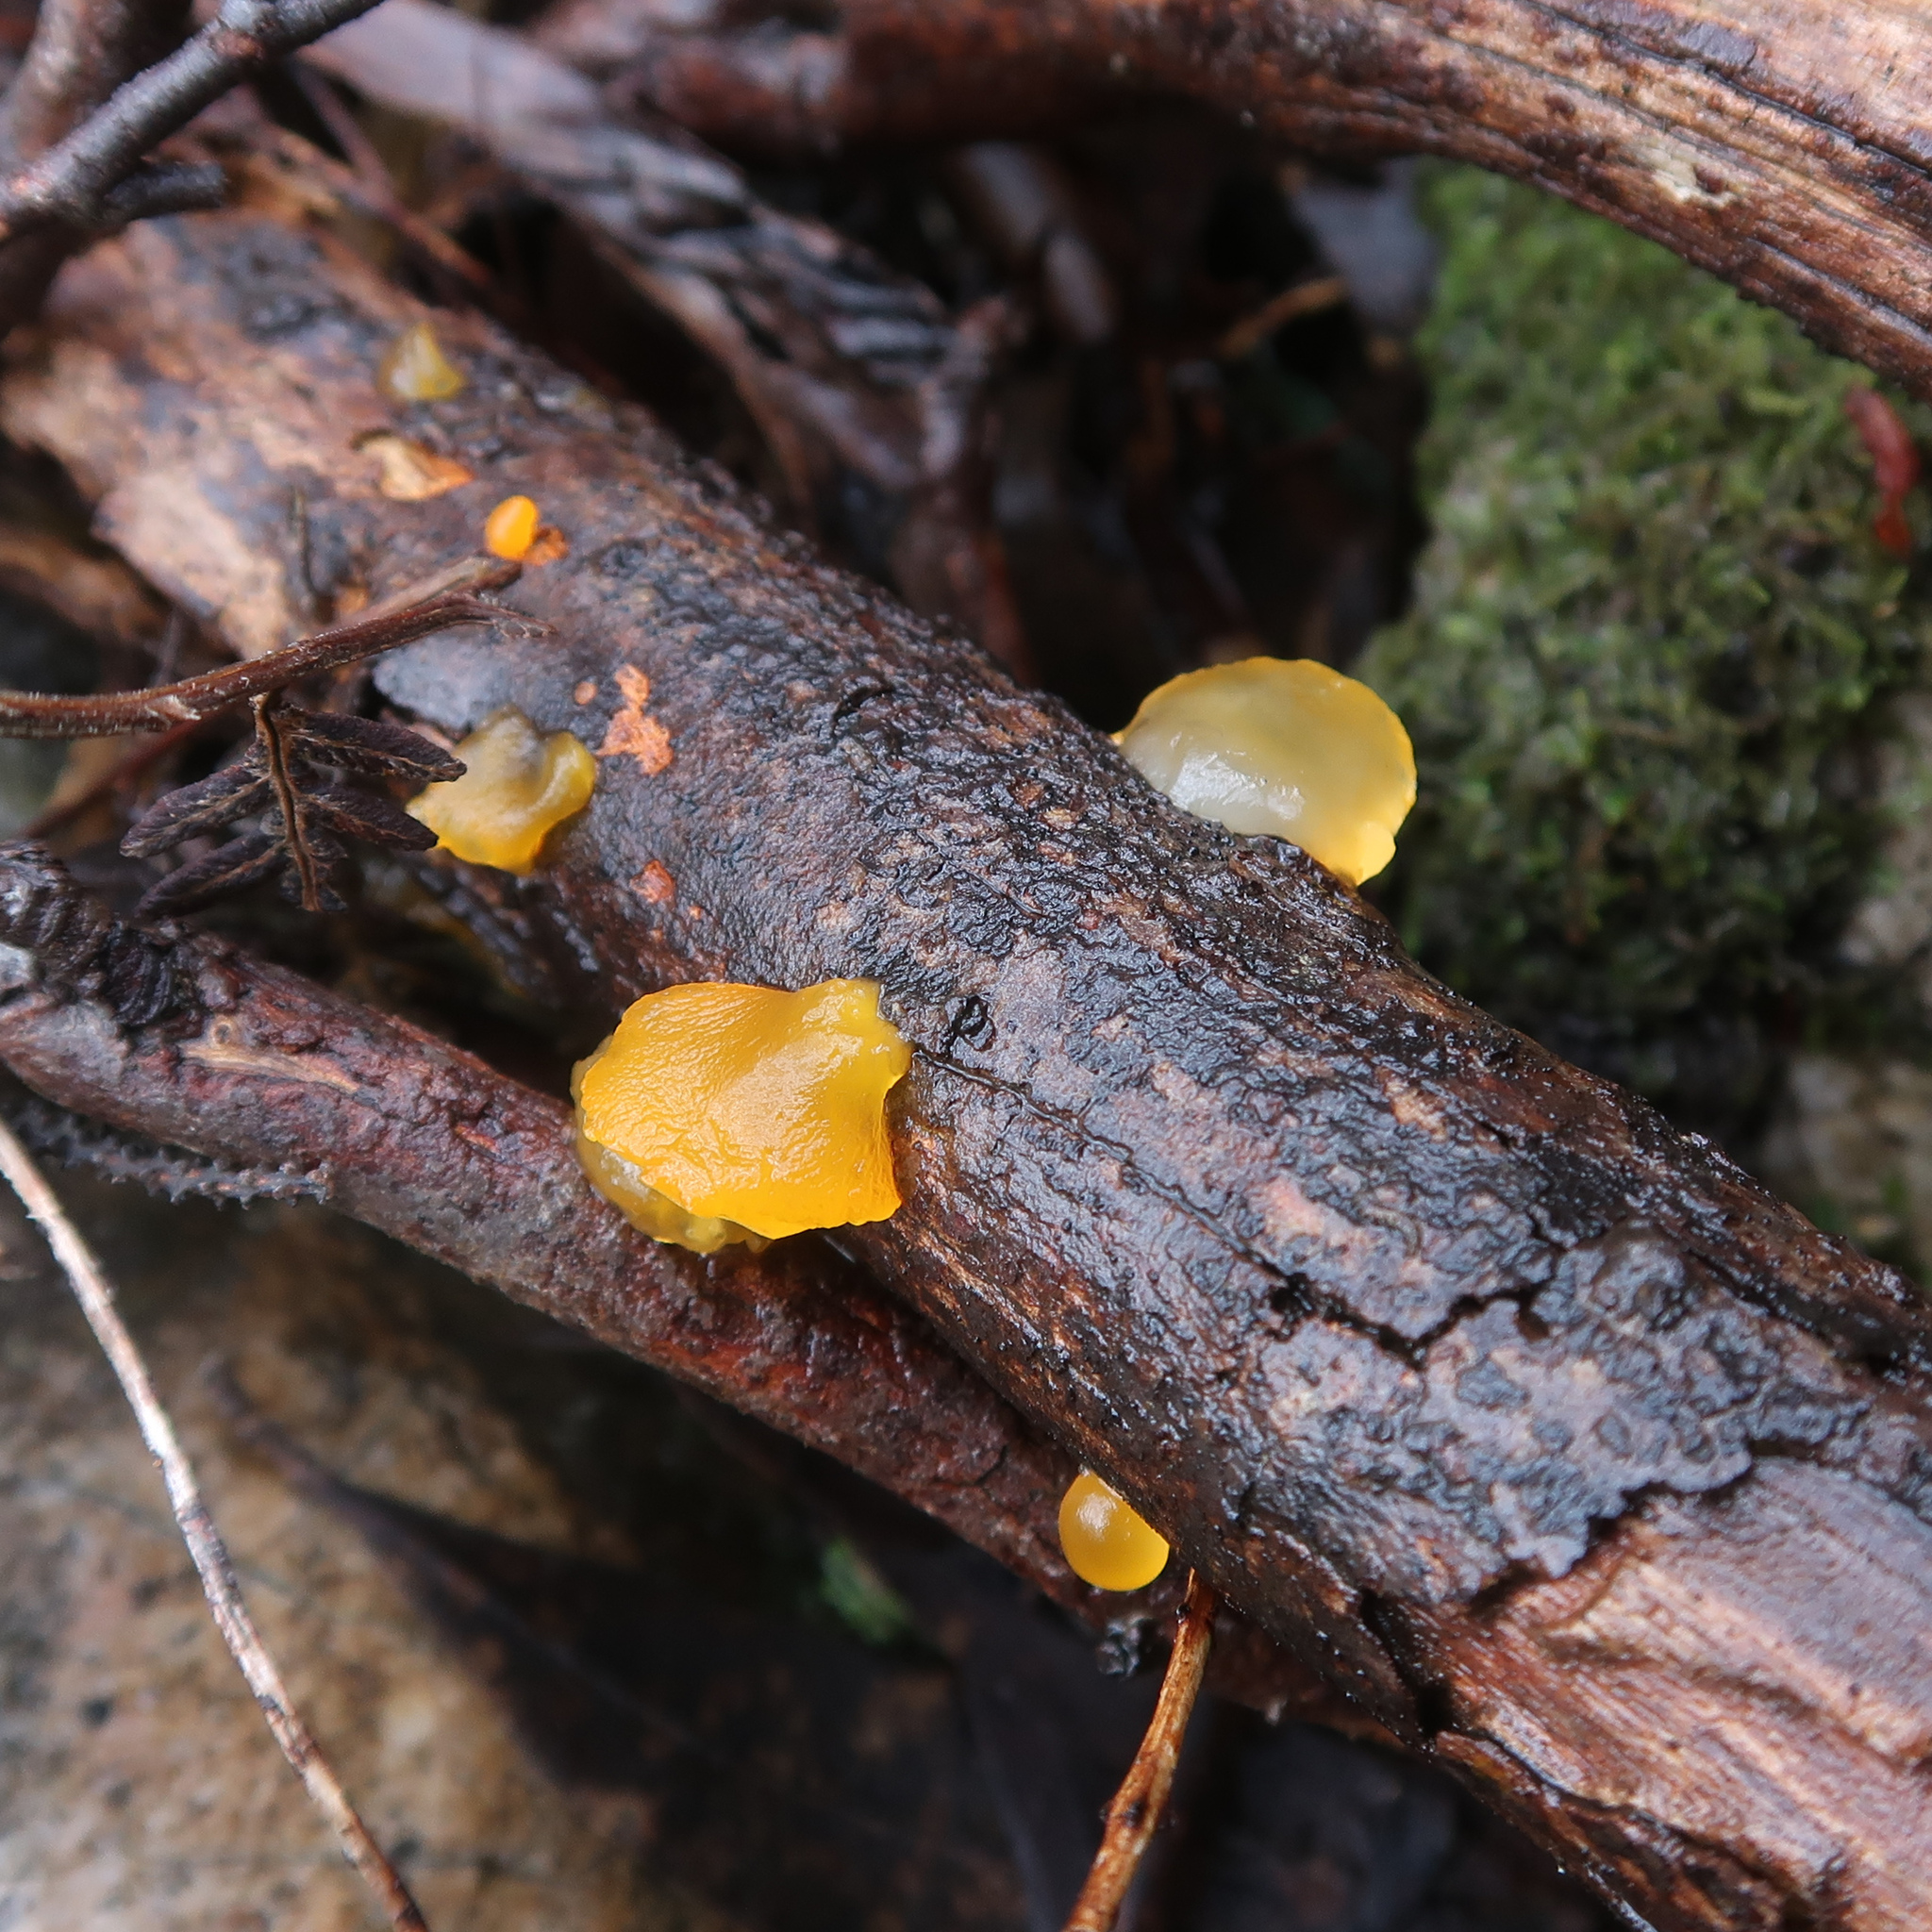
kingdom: Fungi
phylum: Basidiomycota
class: Dacrymycetes
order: Dacrymycetales
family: Dacrymycetaceae
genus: Heterotextus
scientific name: Heterotextus peziziformis
